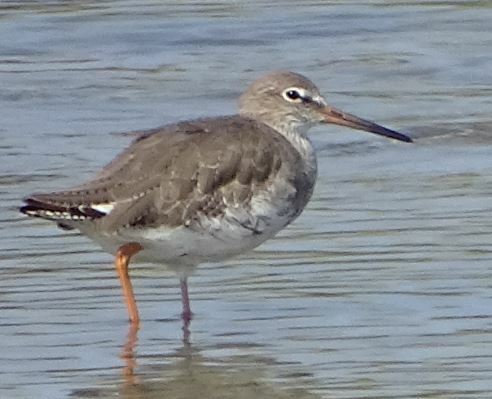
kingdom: Animalia
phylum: Chordata
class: Aves
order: Charadriiformes
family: Scolopacidae
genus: Tringa
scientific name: Tringa totanus
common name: Common redshank
